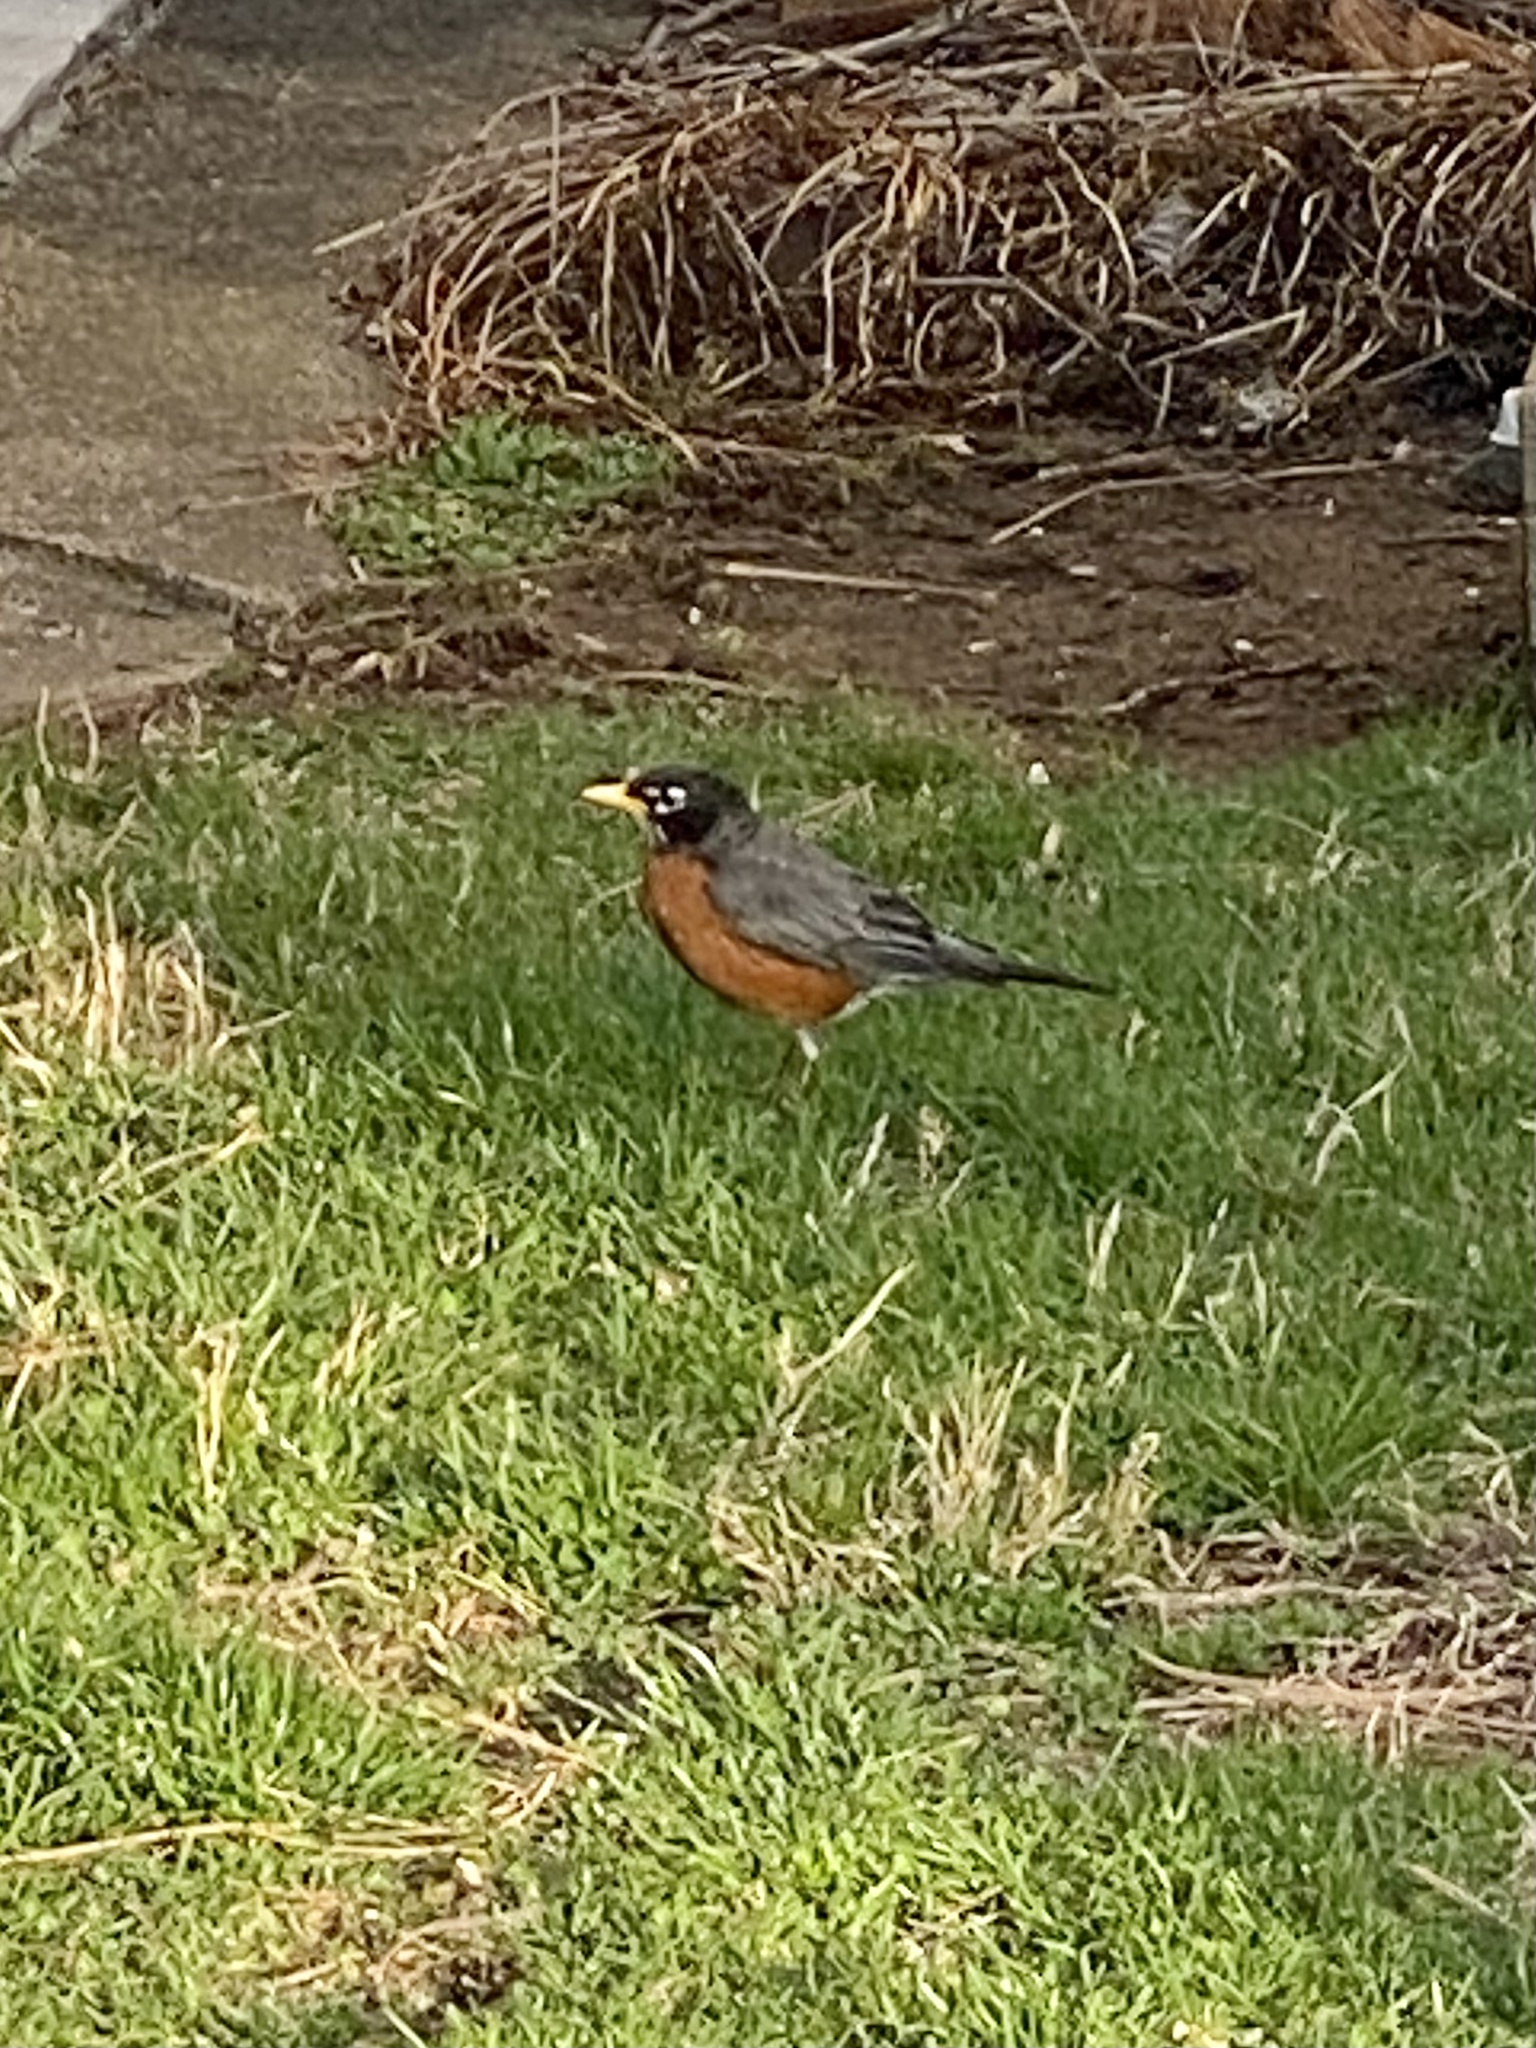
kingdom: Animalia
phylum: Chordata
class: Aves
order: Passeriformes
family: Turdidae
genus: Turdus
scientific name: Turdus migratorius
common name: American robin
